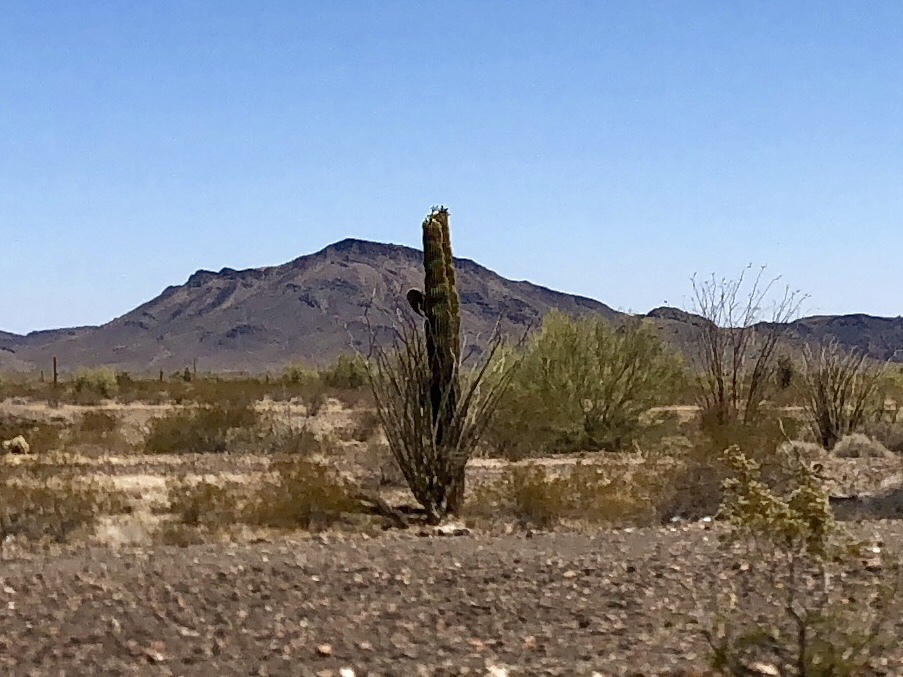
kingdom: Plantae
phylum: Tracheophyta
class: Magnoliopsida
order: Caryophyllales
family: Cactaceae
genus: Carnegiea
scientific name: Carnegiea gigantea
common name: Saguaro
